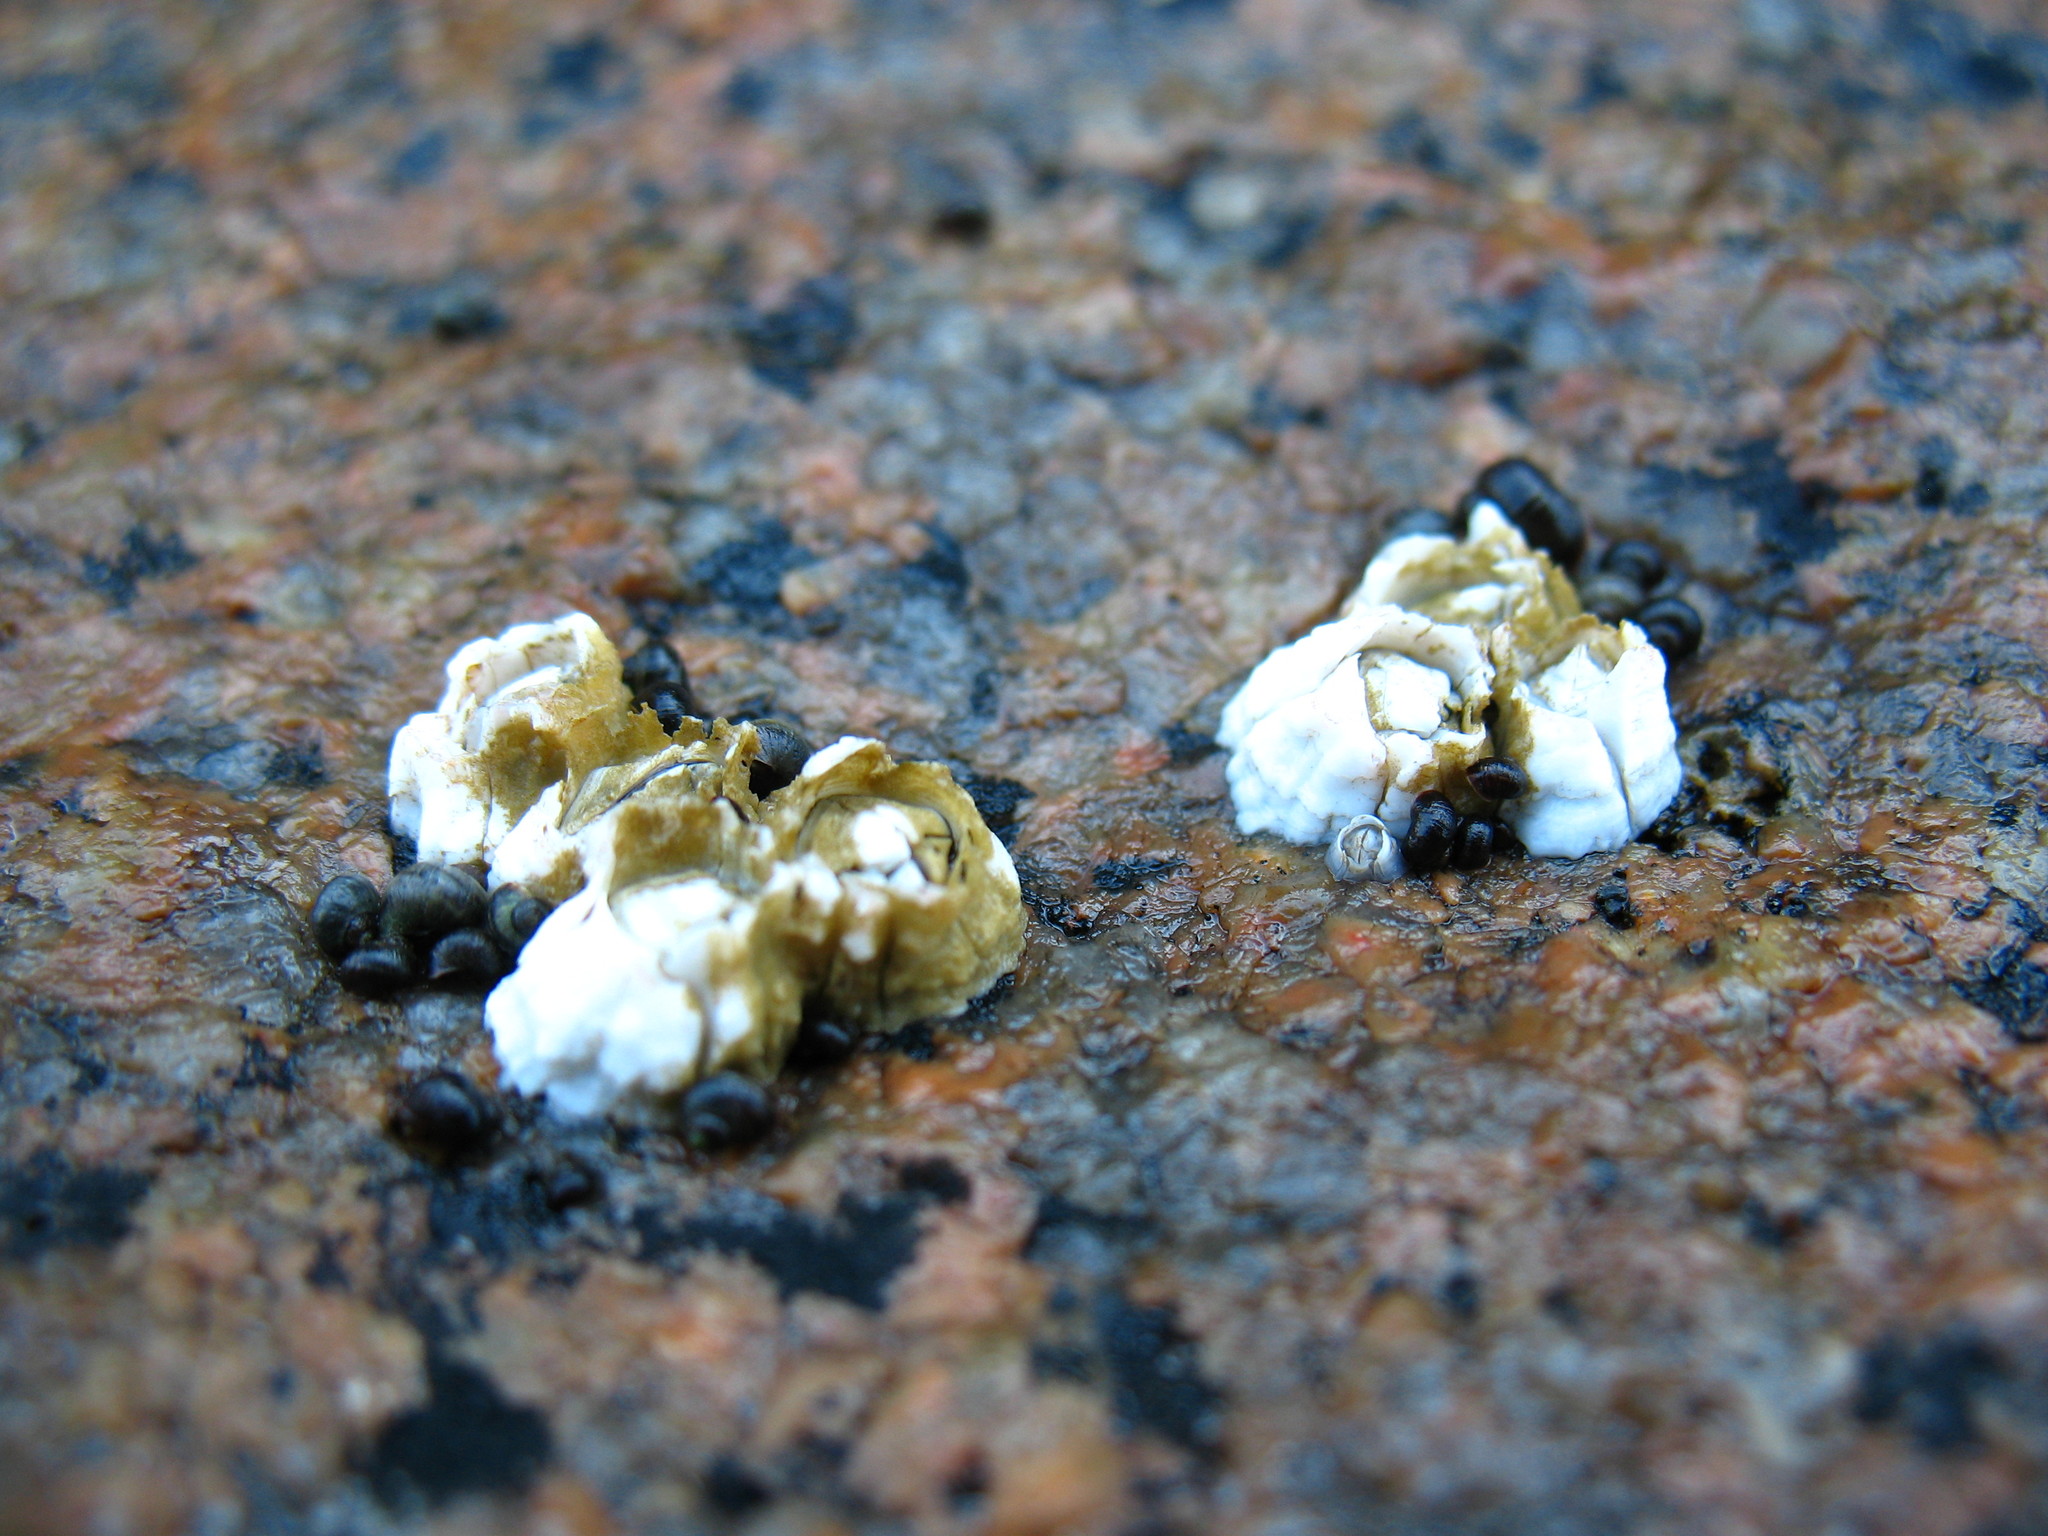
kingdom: Animalia
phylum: Arthropoda
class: Maxillopoda
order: Sessilia
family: Archaeobalanidae
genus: Semibalanus
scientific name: Semibalanus balanoides
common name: Acorn barnacle
